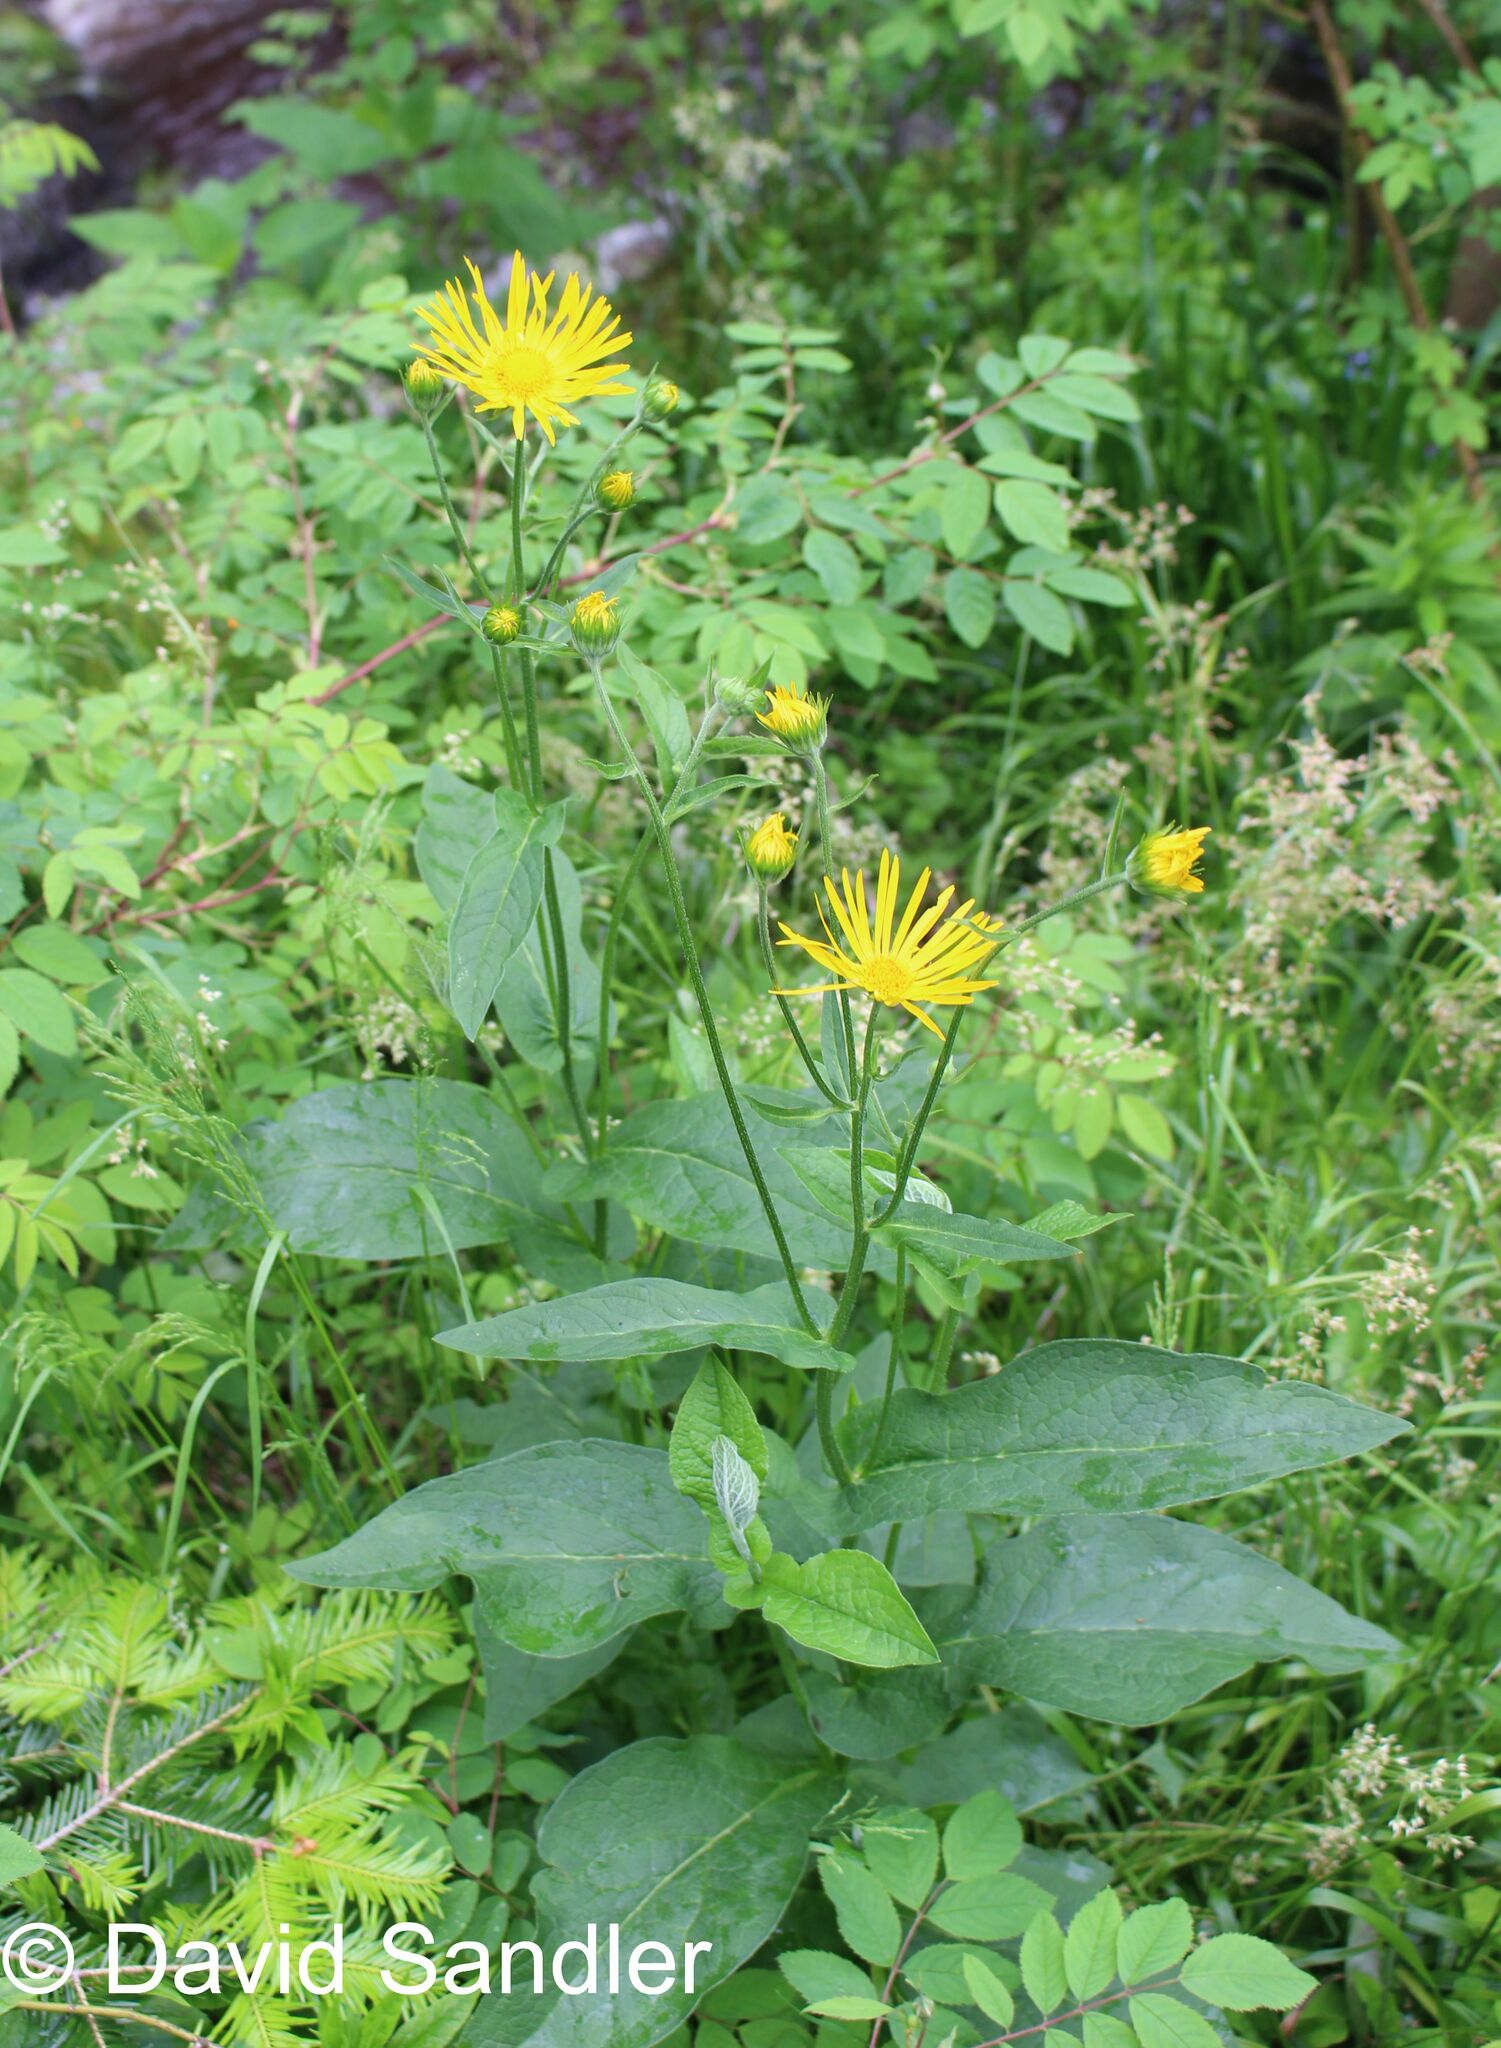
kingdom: Plantae
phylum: Tracheophyta
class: Magnoliopsida
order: Asterales
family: Asteraceae
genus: Doronicum
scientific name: Doronicum austriacum
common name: Austrian leopard's-bane
